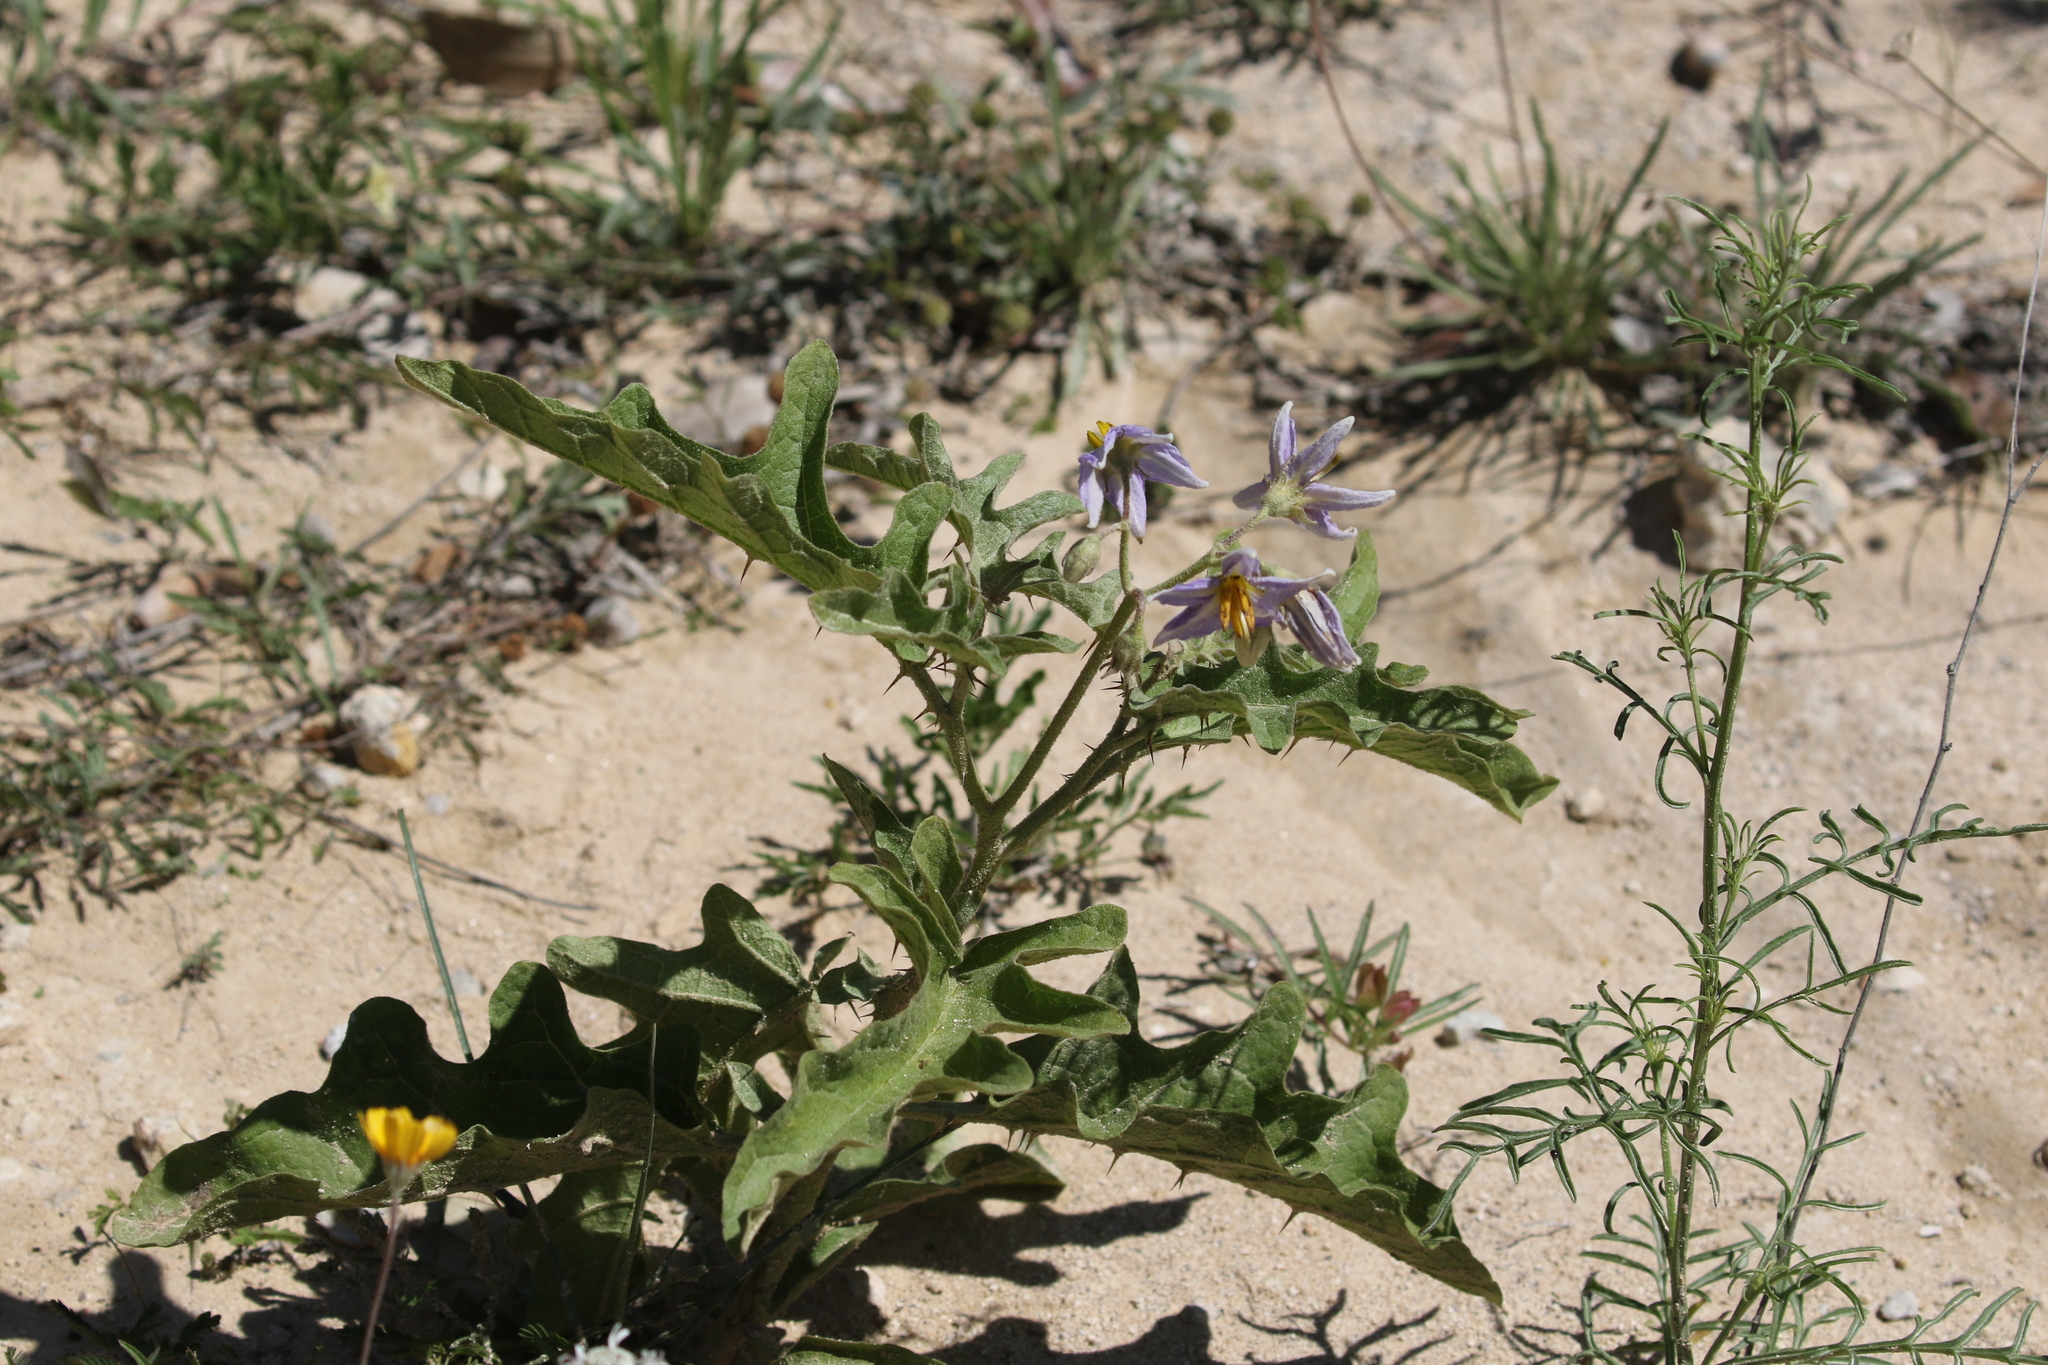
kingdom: Plantae
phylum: Tracheophyta
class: Magnoliopsida
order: Solanales
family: Solanaceae
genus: Solanum
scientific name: Solanum dimidiatum
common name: Carolina horse-nettle
